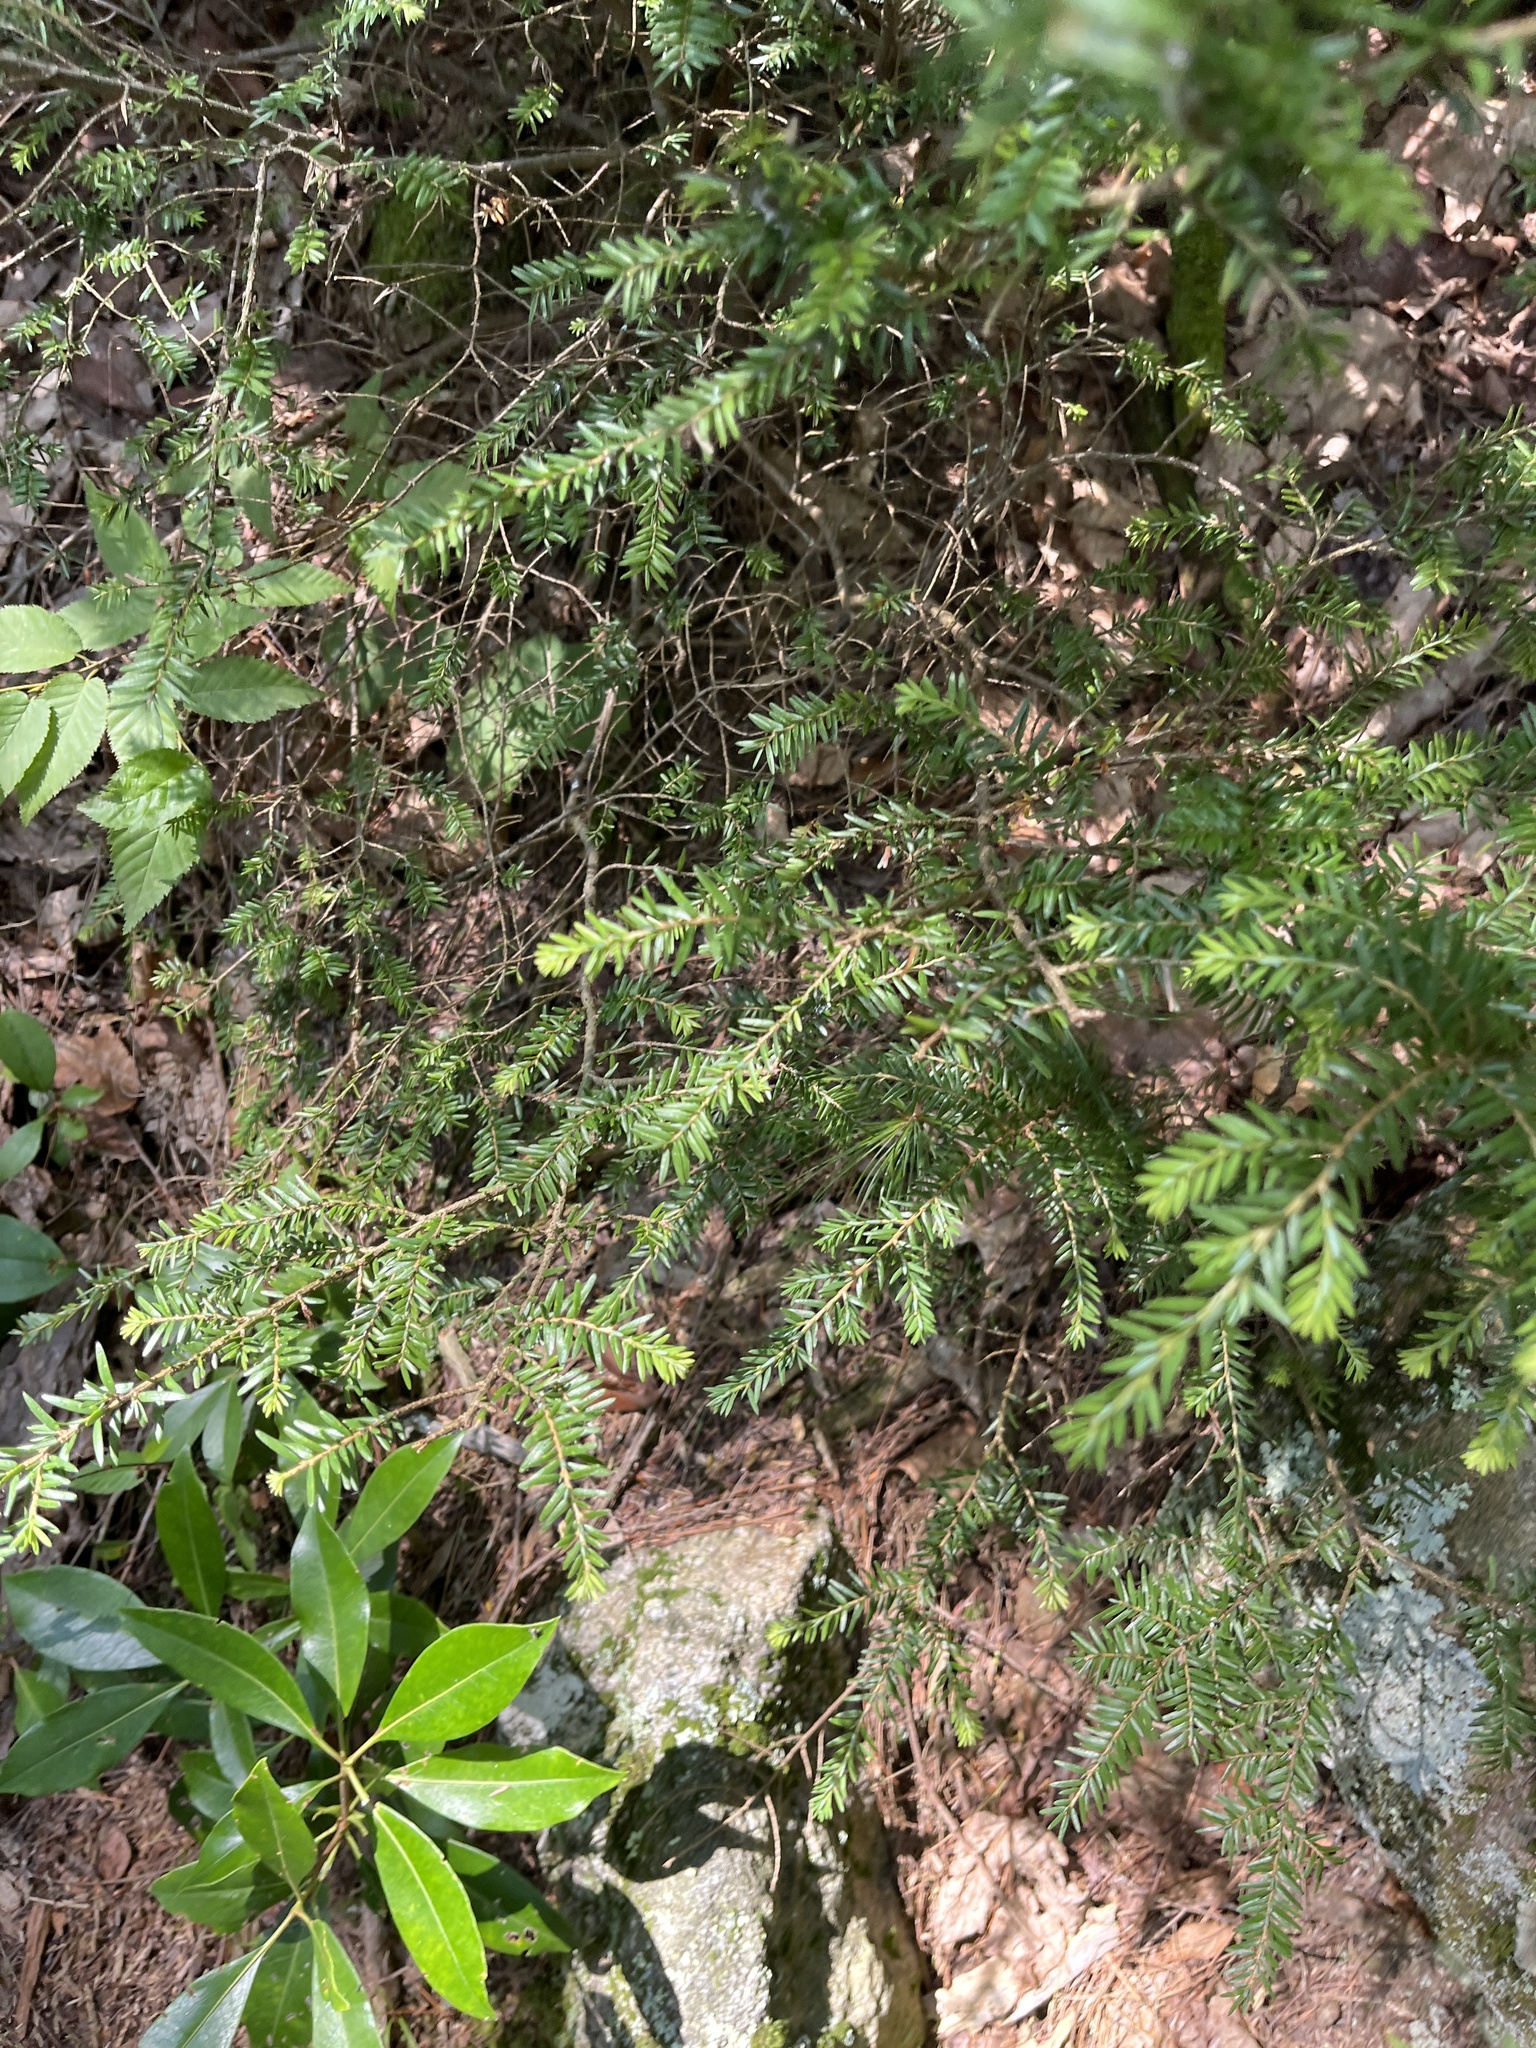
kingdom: Plantae
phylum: Tracheophyta
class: Pinopsida
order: Pinales
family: Pinaceae
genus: Tsuga
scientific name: Tsuga canadensis
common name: Eastern hemlock
